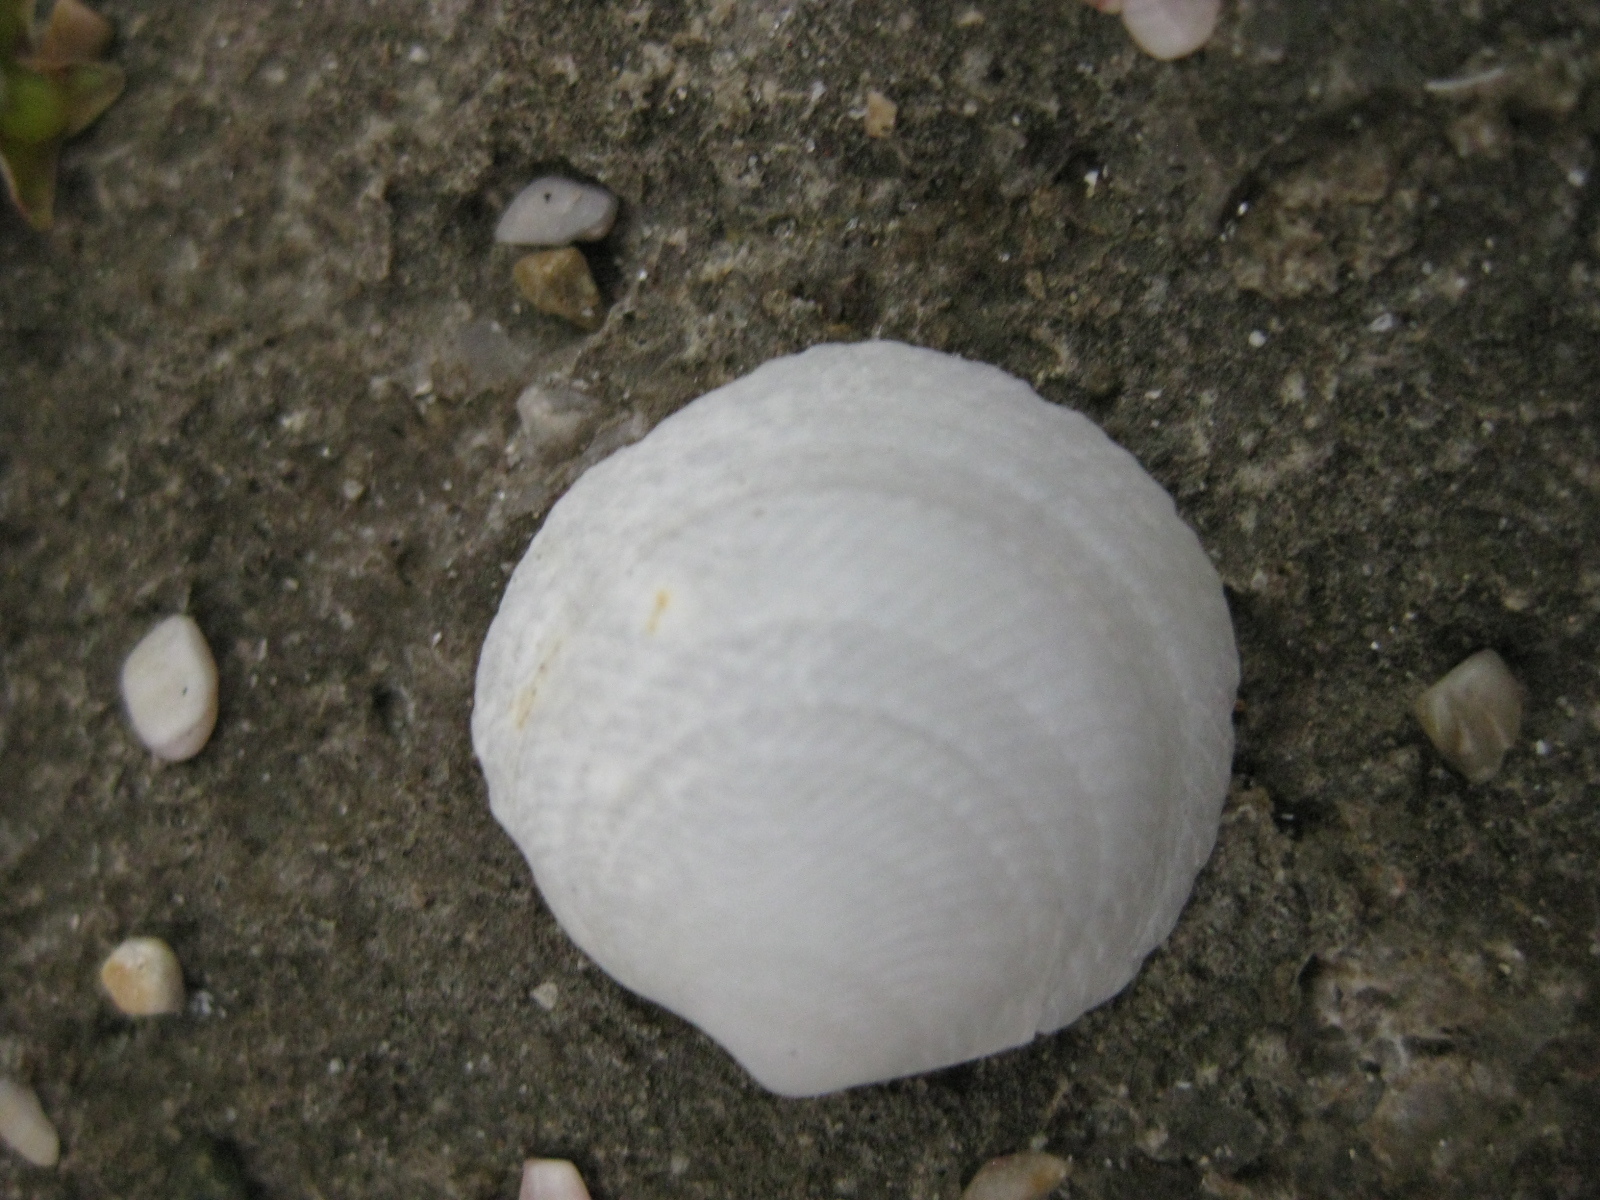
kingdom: Animalia
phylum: Mollusca
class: Bivalvia
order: Lucinida
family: Lucinidae
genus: Divalucina
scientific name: Divalucina cumingi
